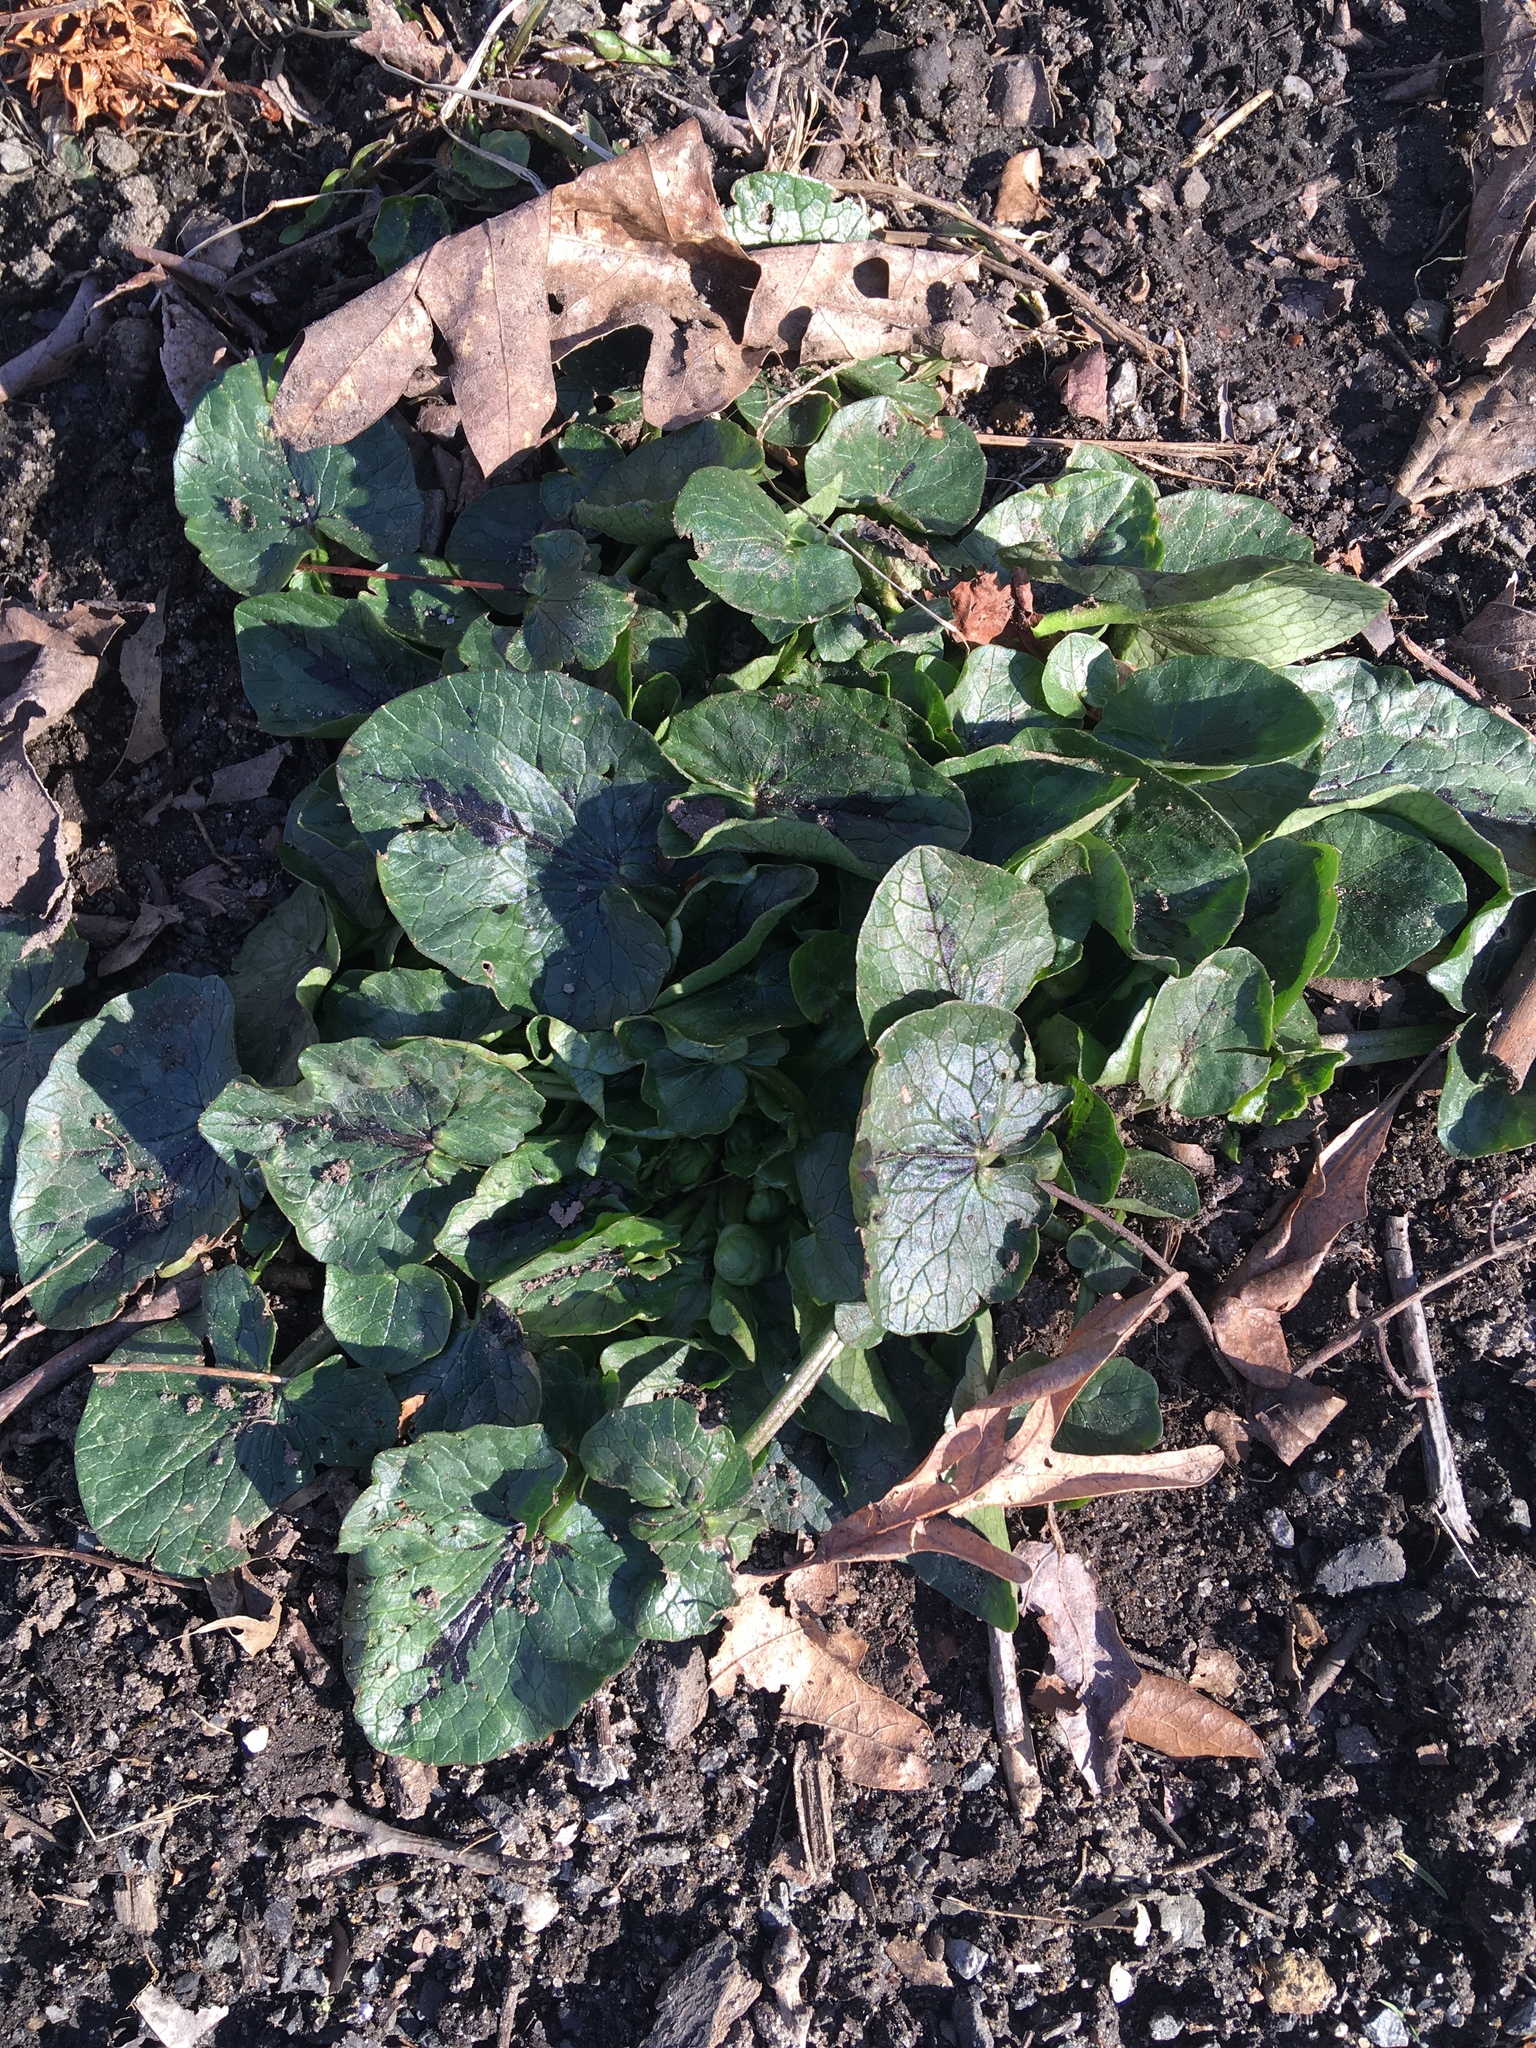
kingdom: Plantae
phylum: Tracheophyta
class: Magnoliopsida
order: Ranunculales
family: Ranunculaceae
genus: Ficaria
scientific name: Ficaria verna
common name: Lesser celandine
